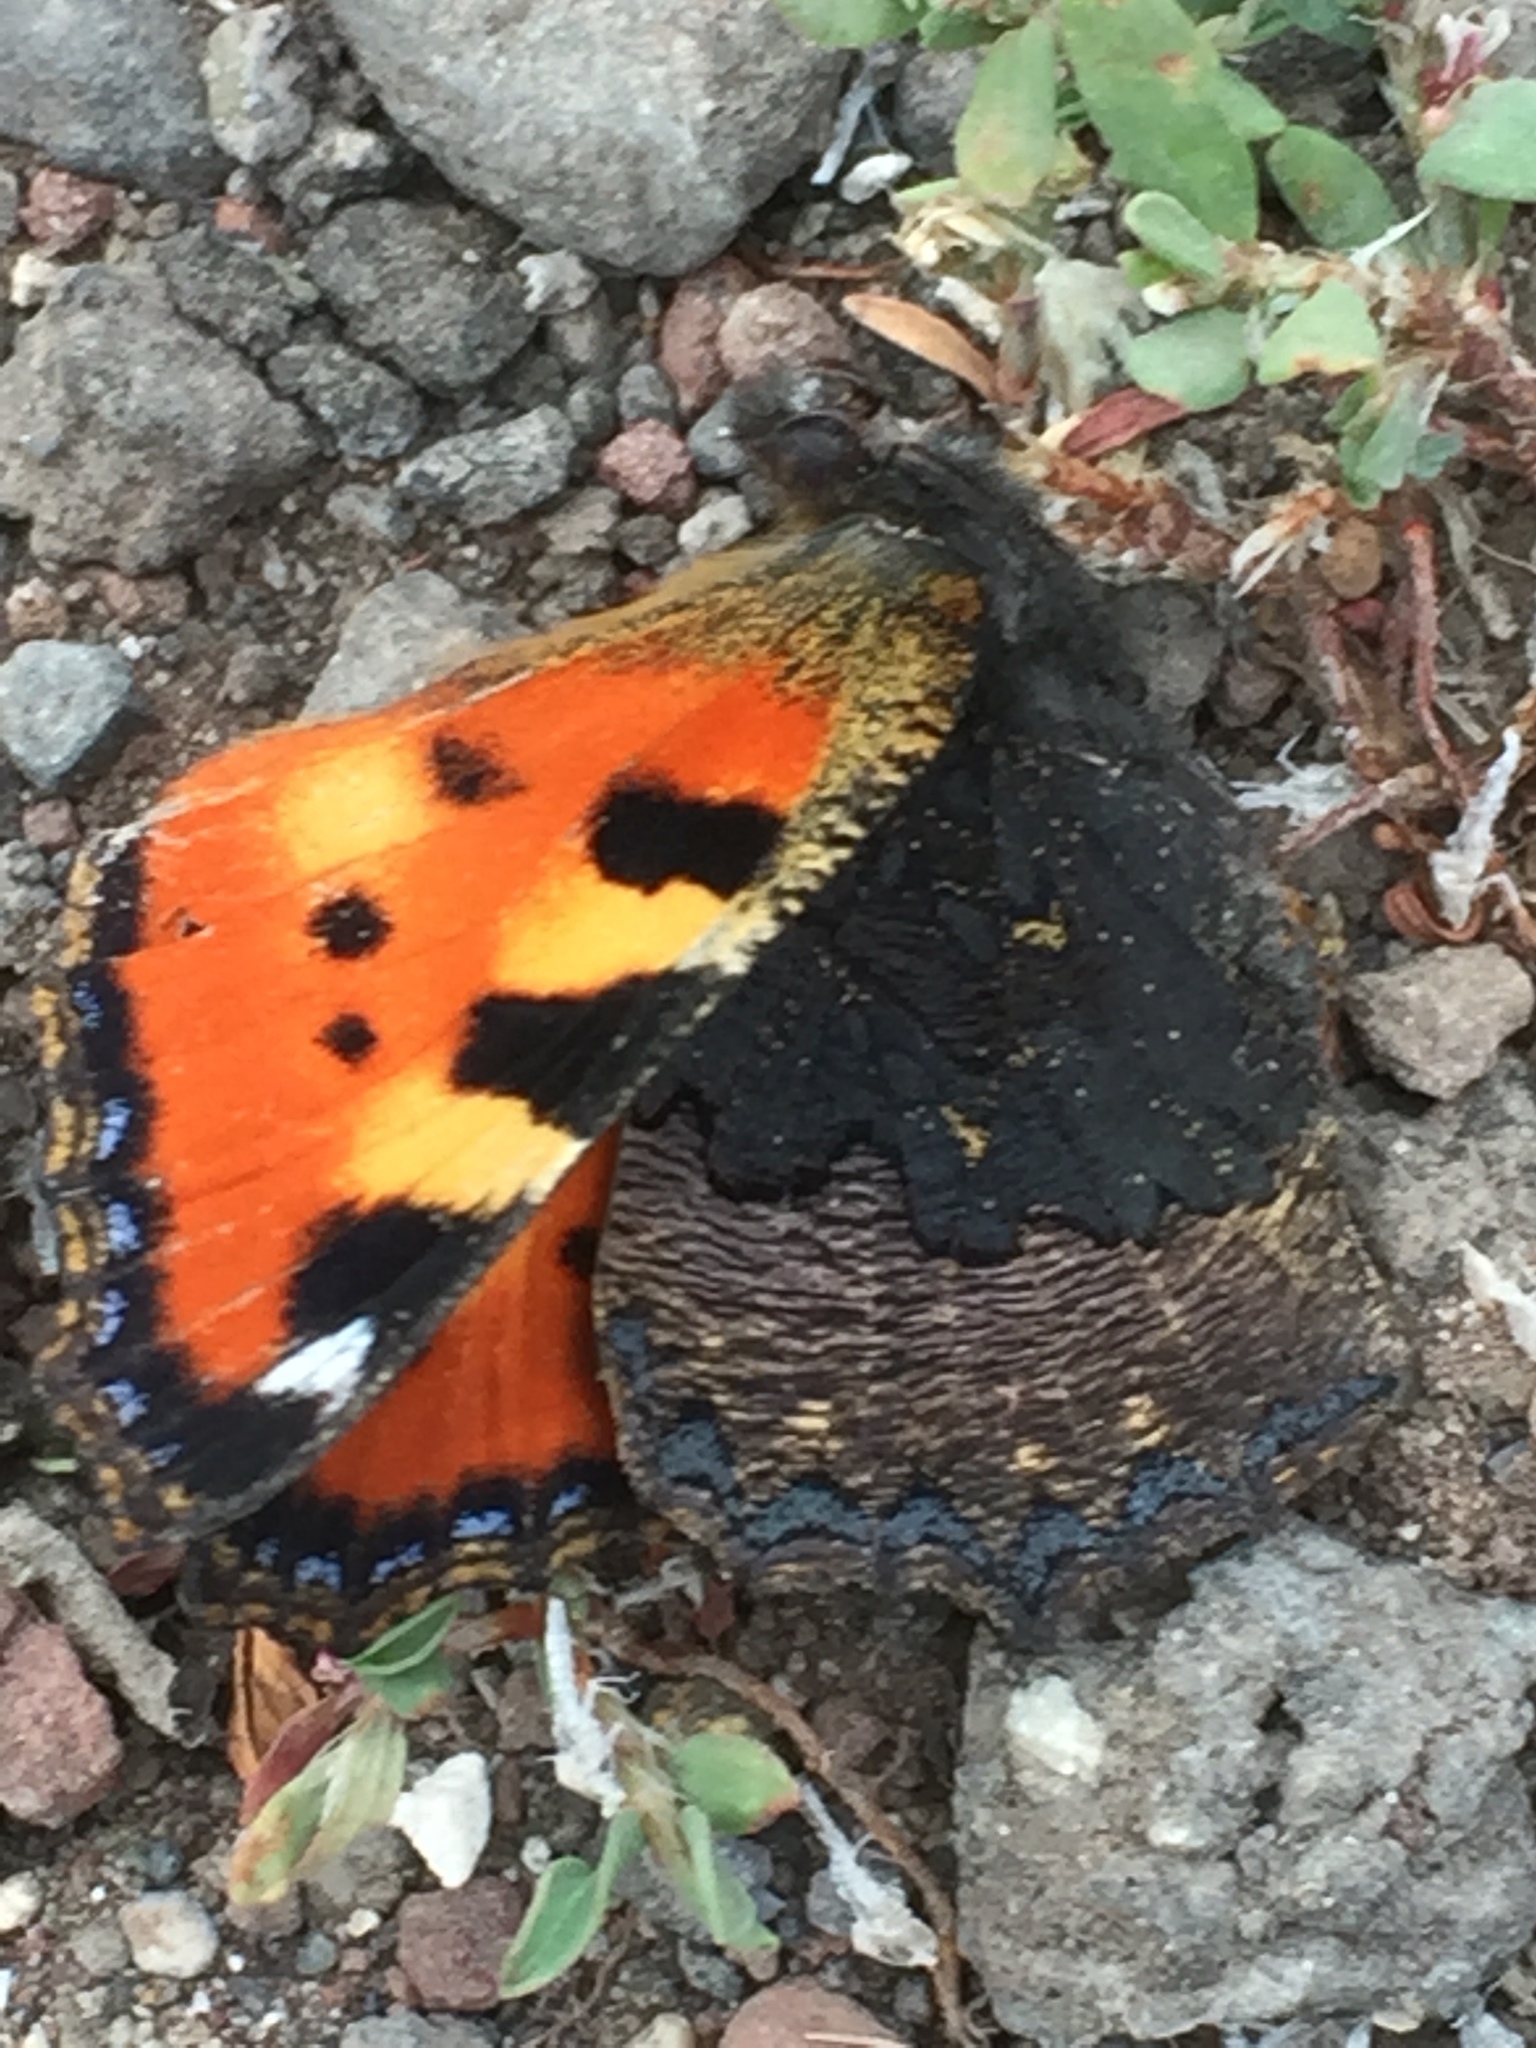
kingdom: Animalia
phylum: Arthropoda
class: Insecta
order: Lepidoptera
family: Nymphalidae
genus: Aglais
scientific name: Aglais urticae
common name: Small tortoiseshell
